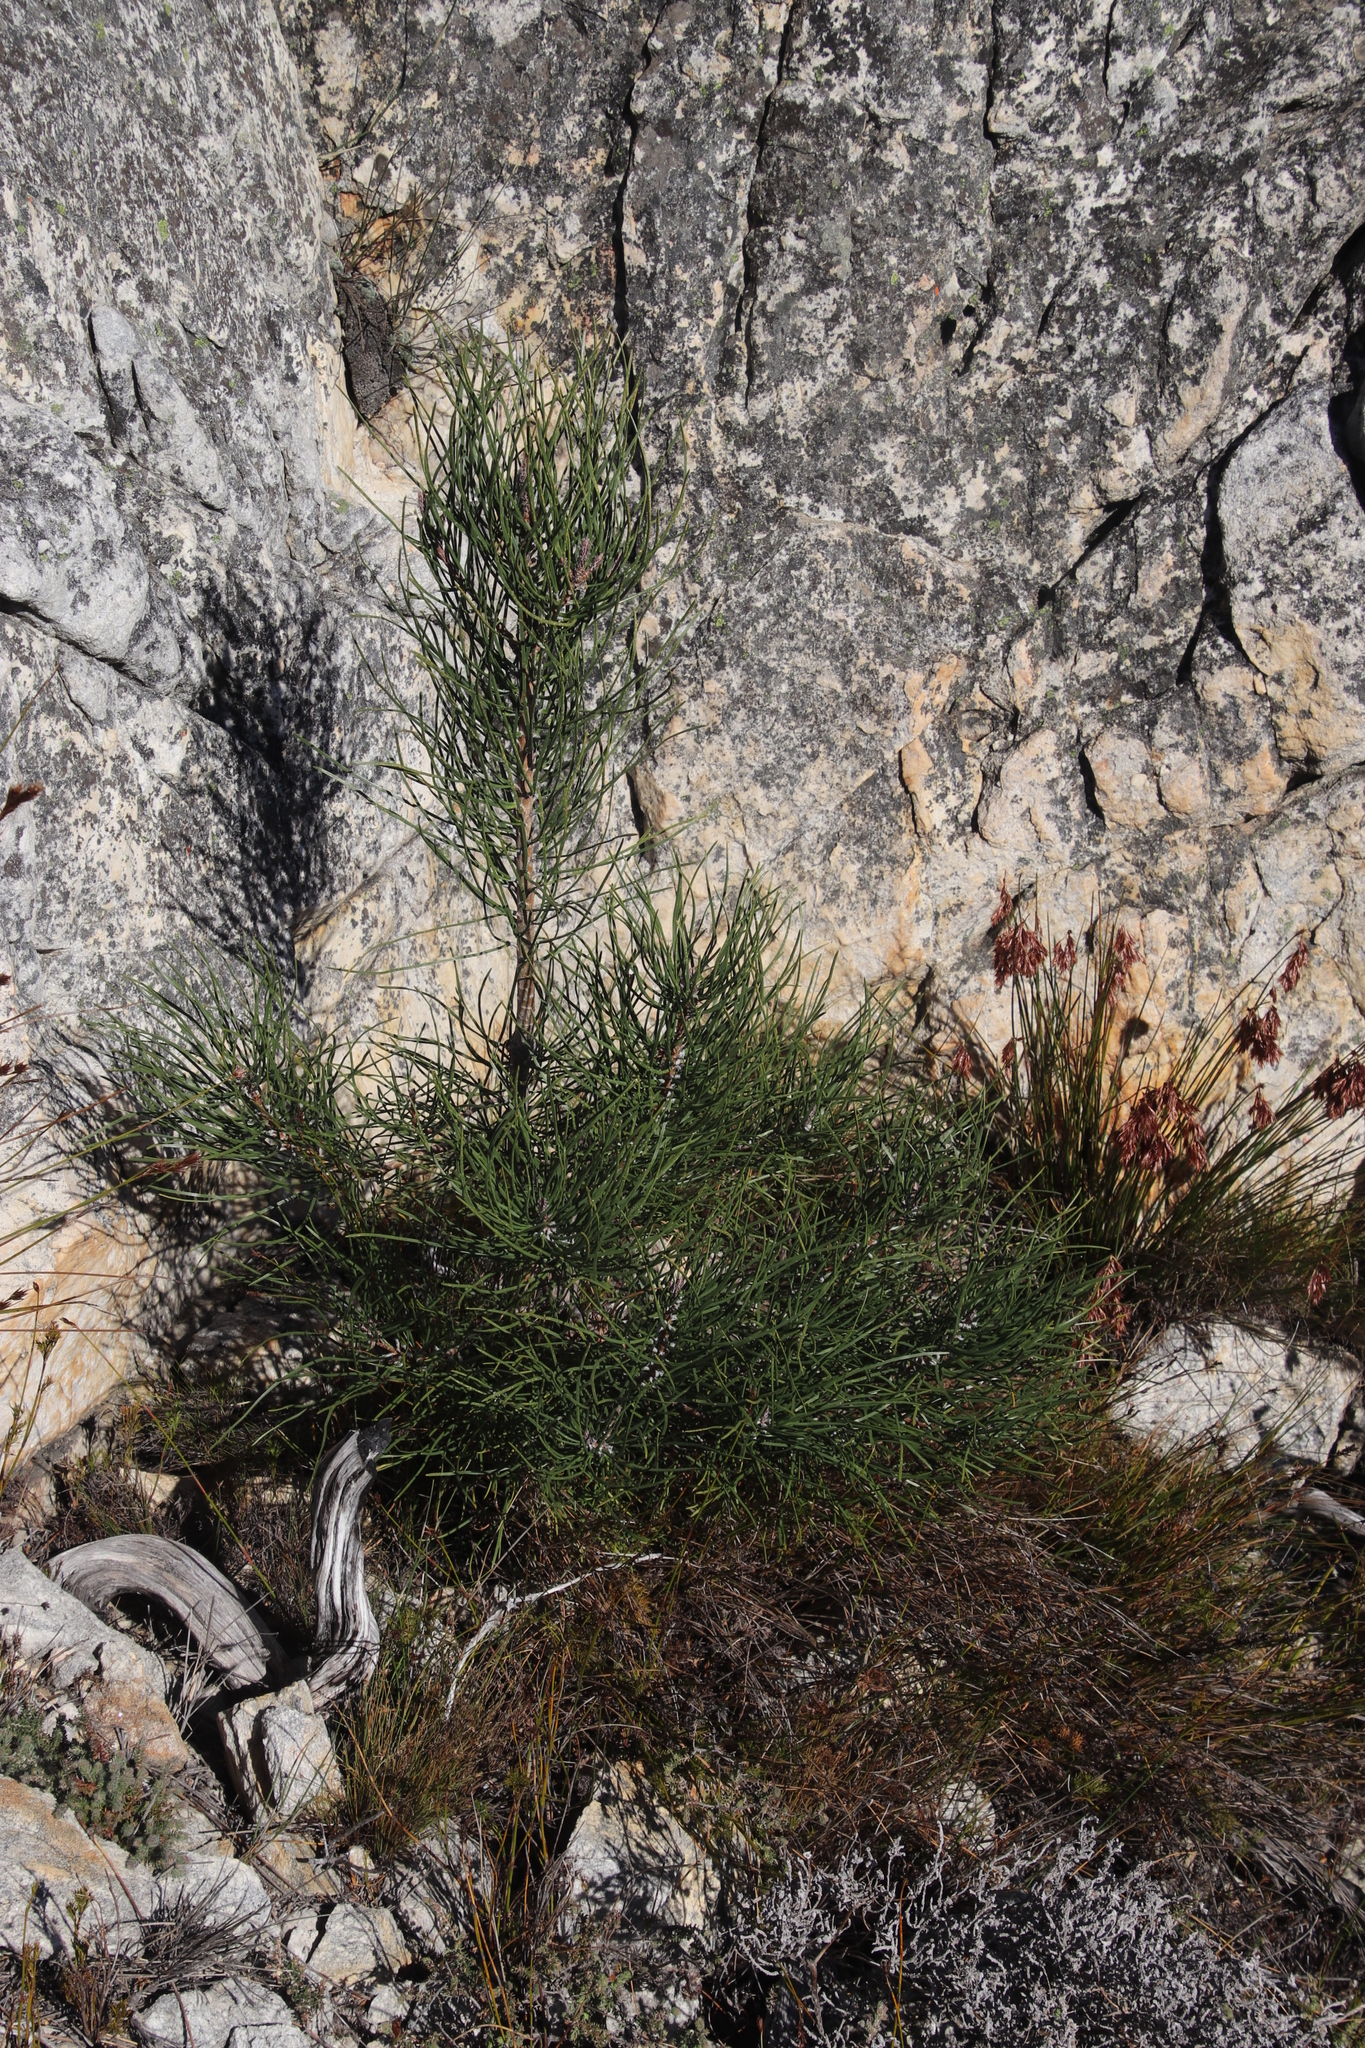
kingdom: Plantae
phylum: Tracheophyta
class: Pinopsida
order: Pinales
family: Pinaceae
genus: Pinus
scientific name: Pinus pinaster
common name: Maritime pine
